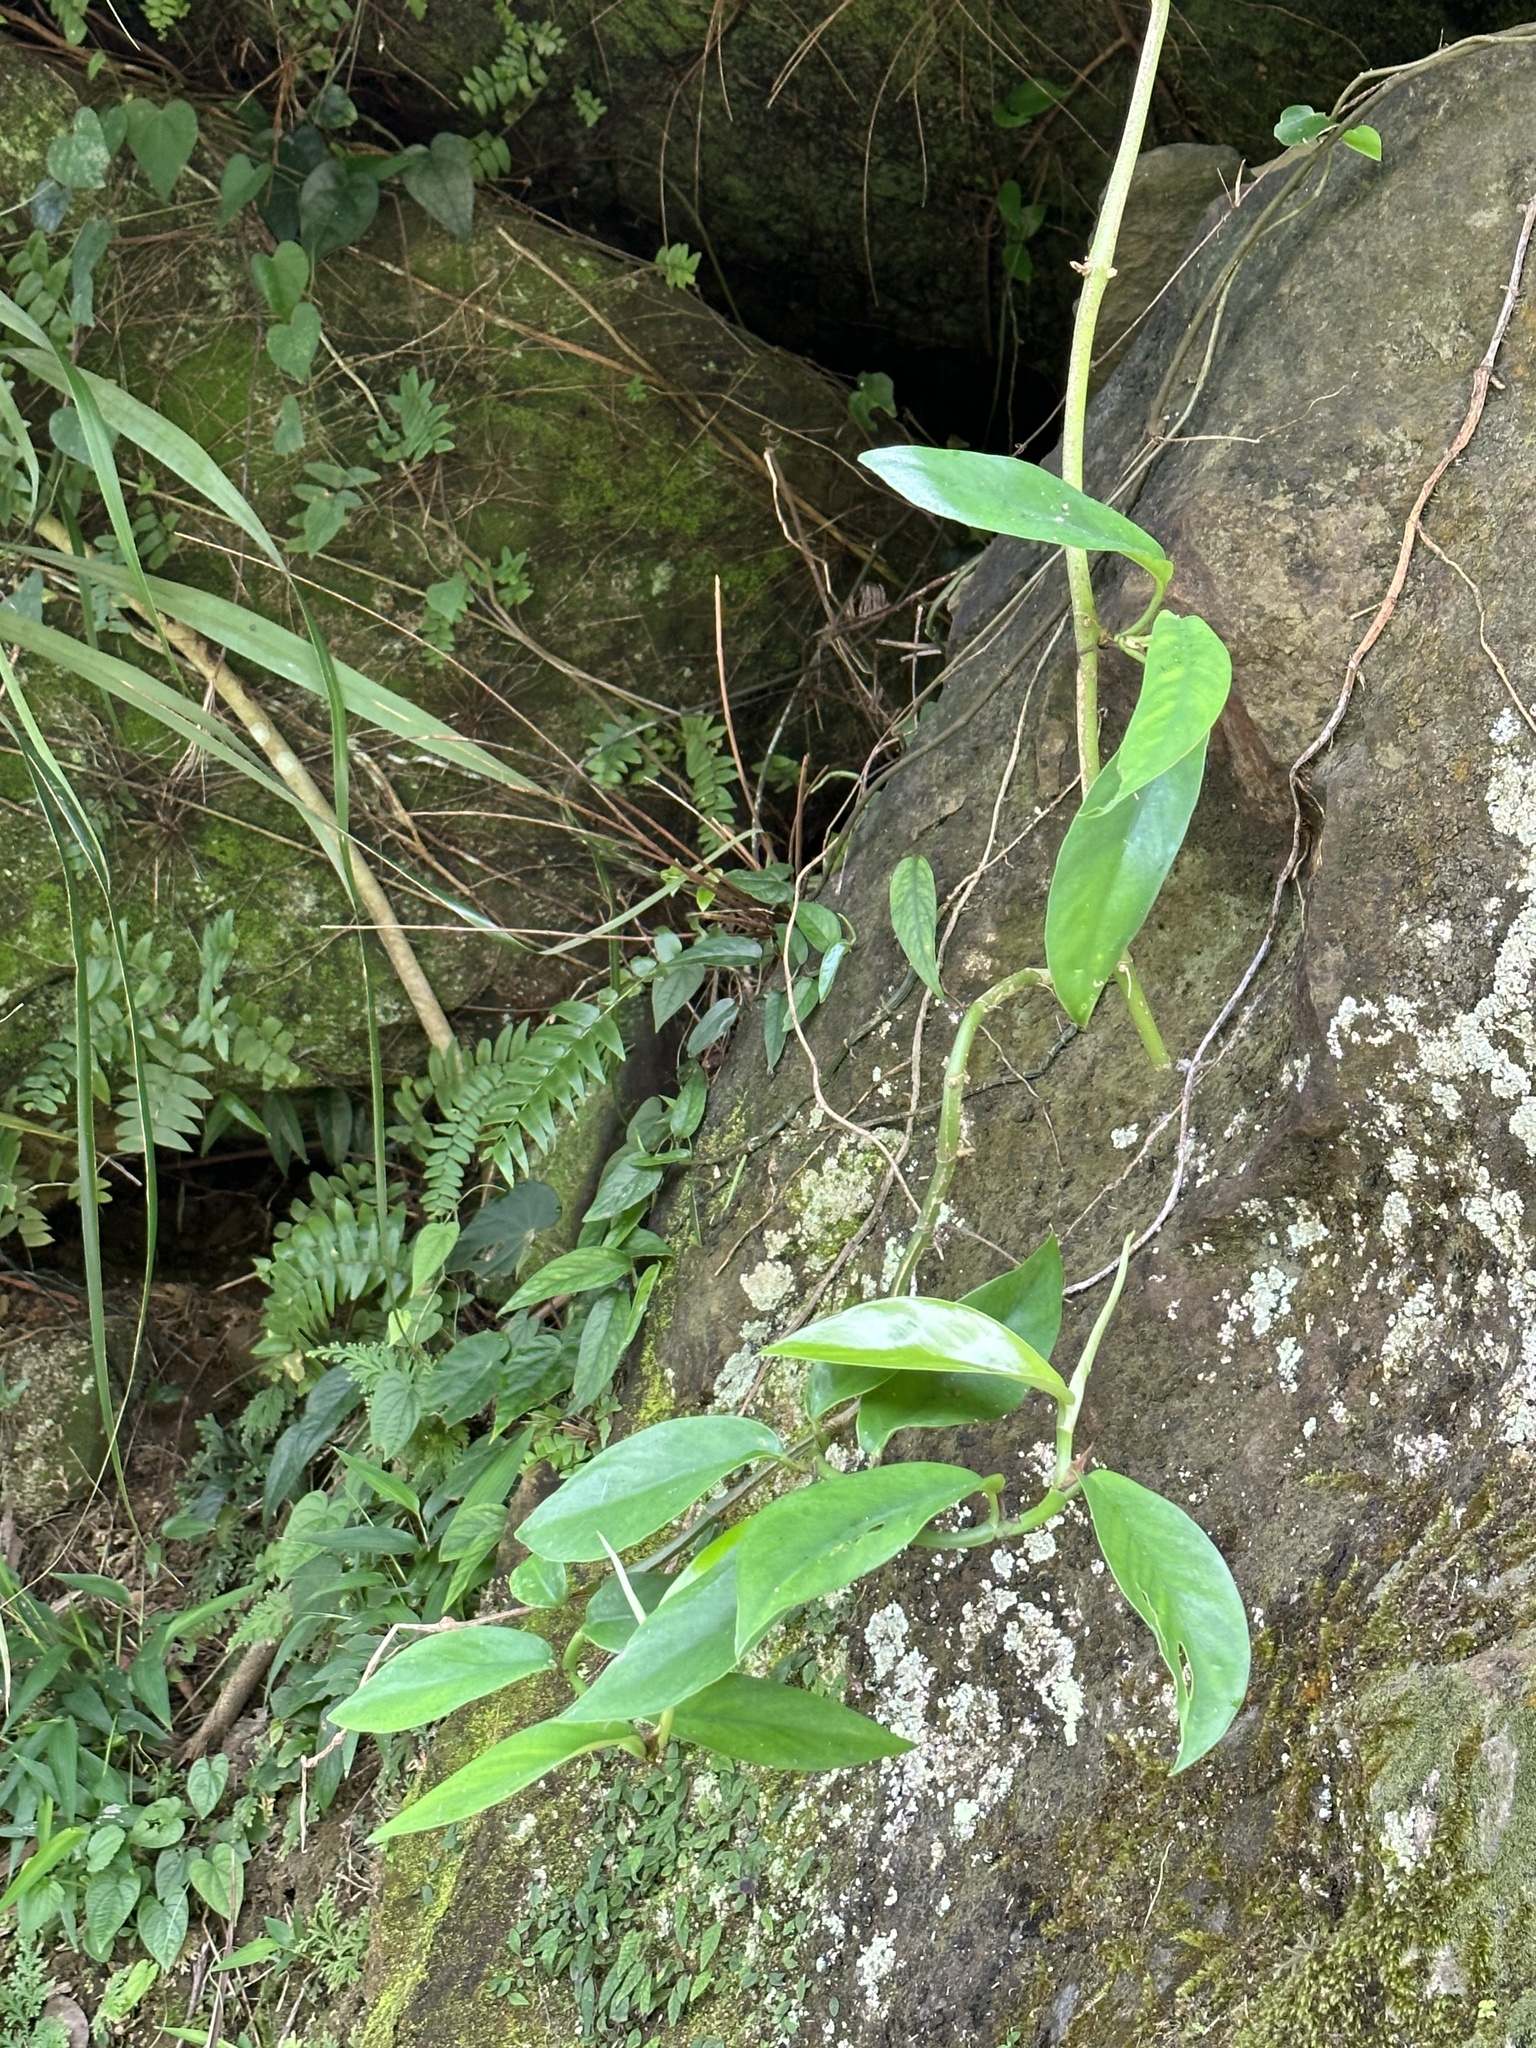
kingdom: Plantae
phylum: Tracheophyta
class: Liliopsida
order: Alismatales
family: Araceae
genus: Epipremnum
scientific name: Epipremnum pinnatum
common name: Centipede tongavine
